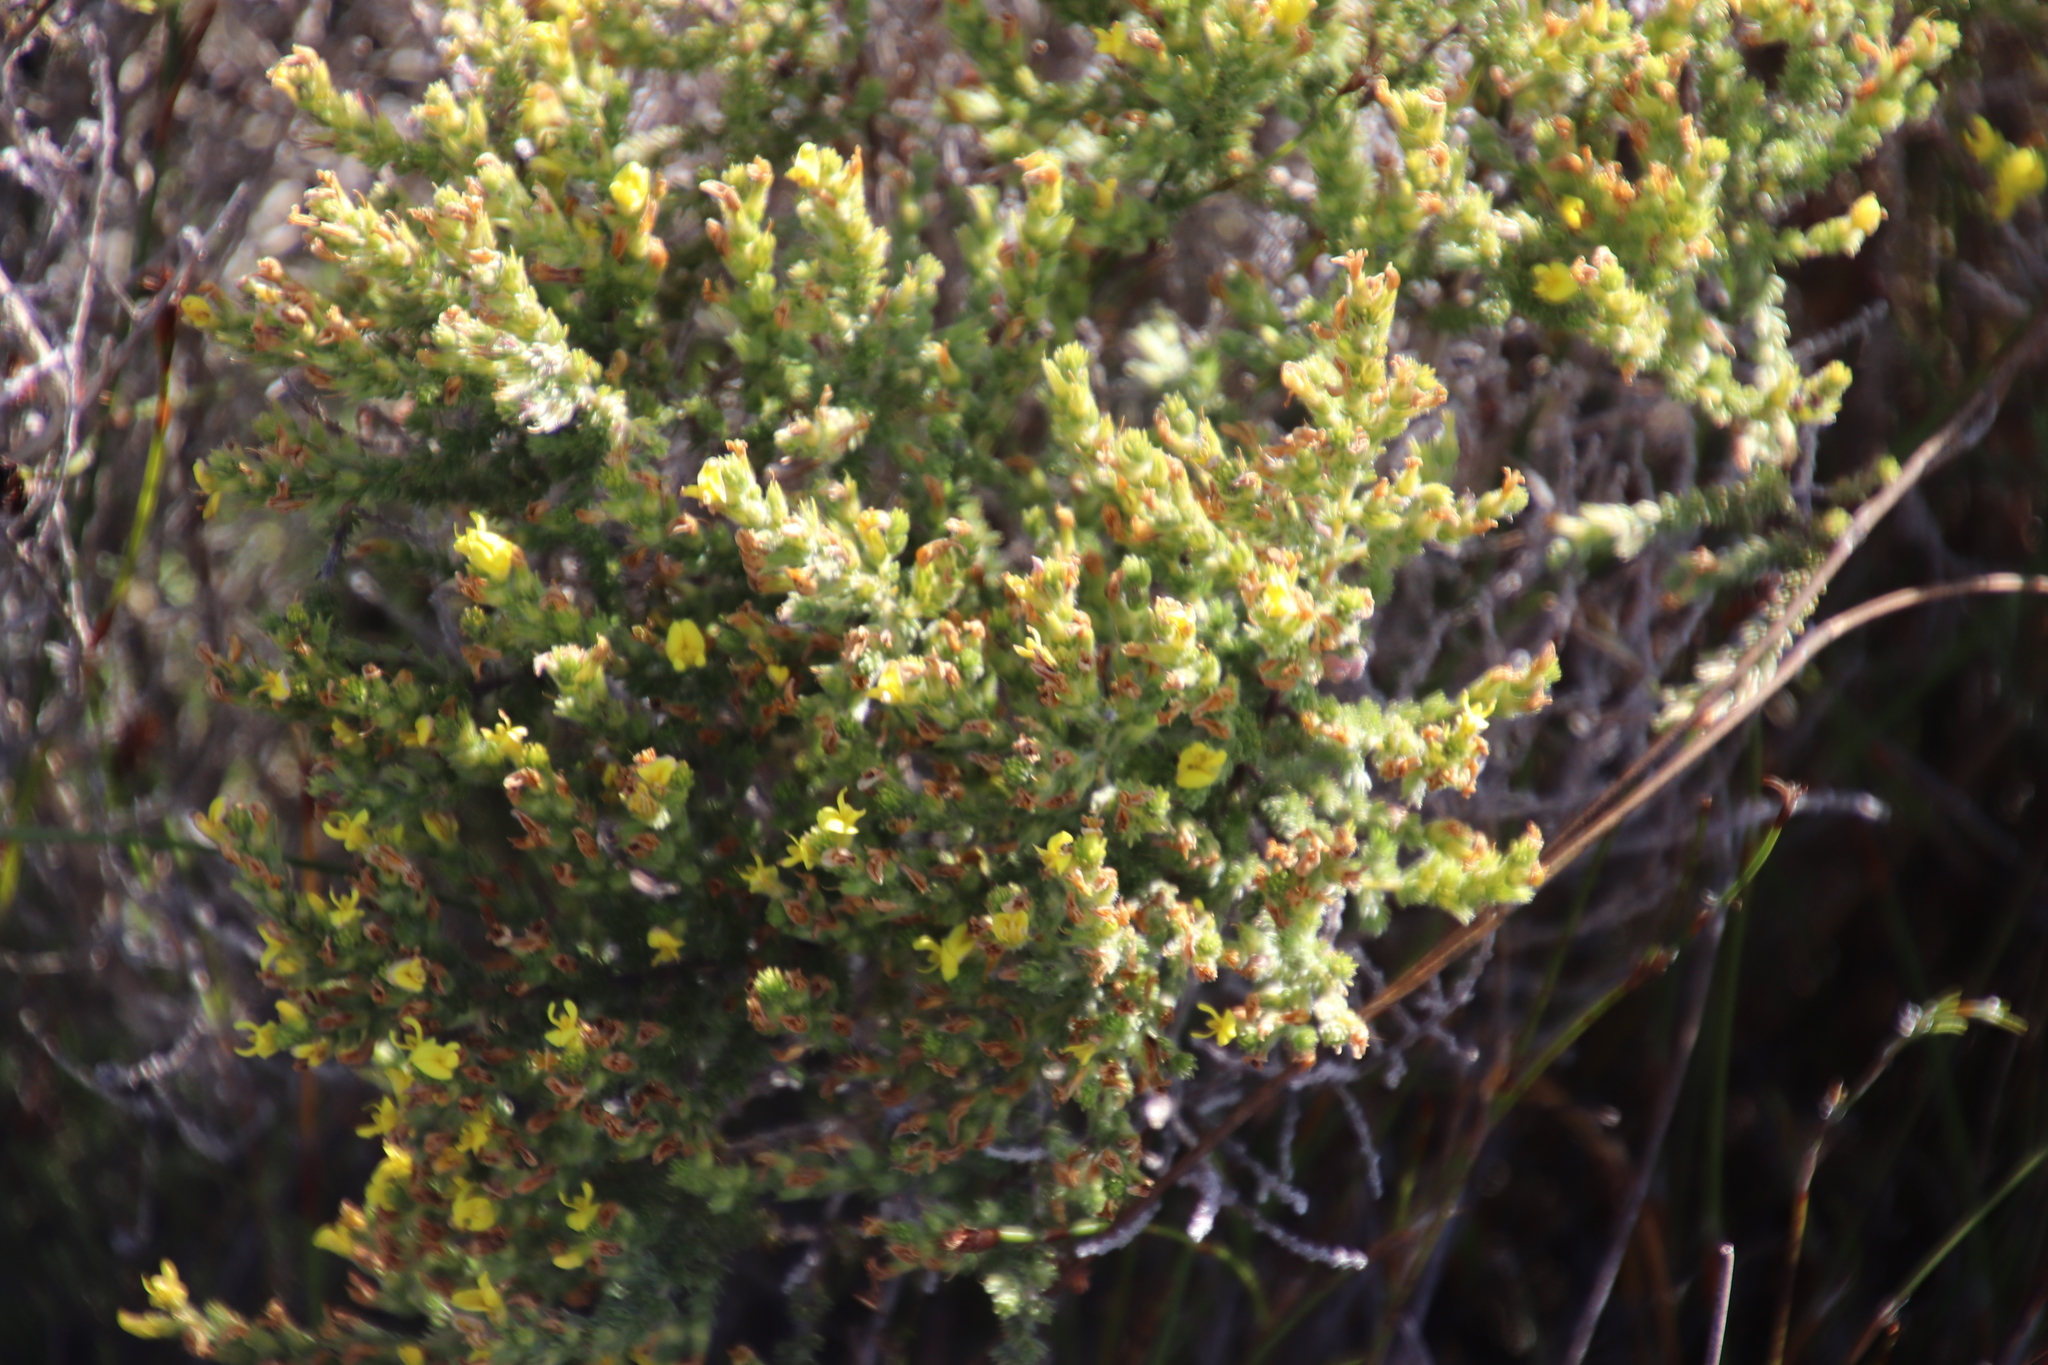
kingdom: Plantae
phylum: Tracheophyta
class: Magnoliopsida
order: Fabales
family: Fabaceae
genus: Aspalathus
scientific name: Aspalathus ericifolia
